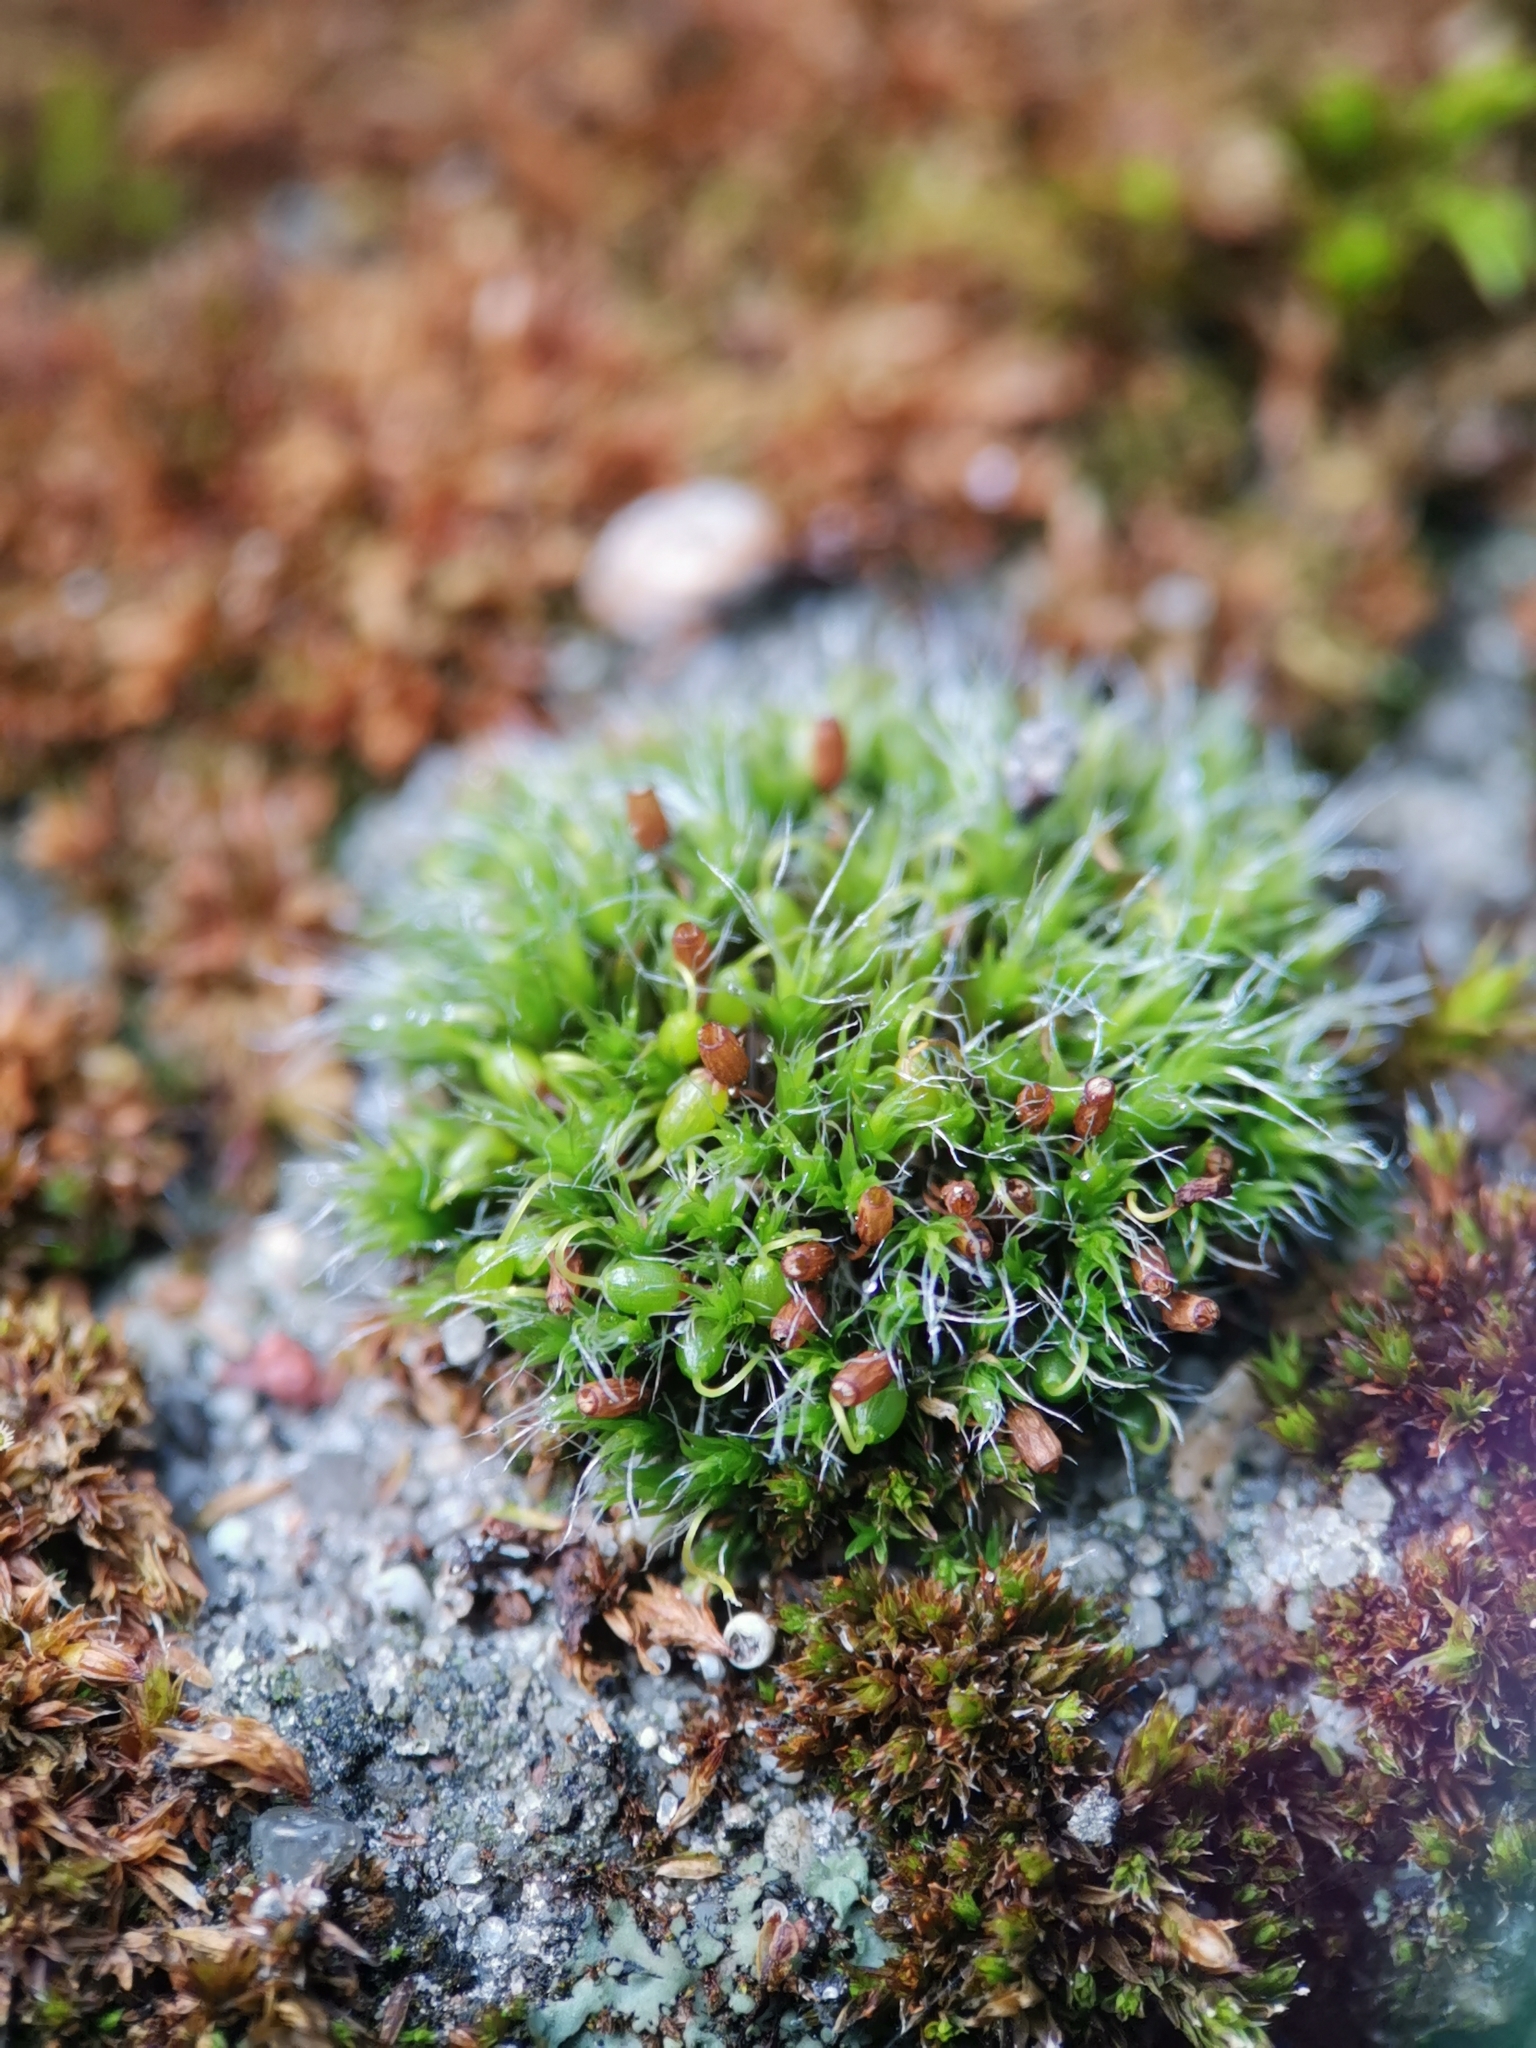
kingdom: Plantae
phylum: Bryophyta
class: Bryopsida
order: Grimmiales
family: Grimmiaceae
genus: Grimmia
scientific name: Grimmia pulvinata
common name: Grey-cushioned grimmia
